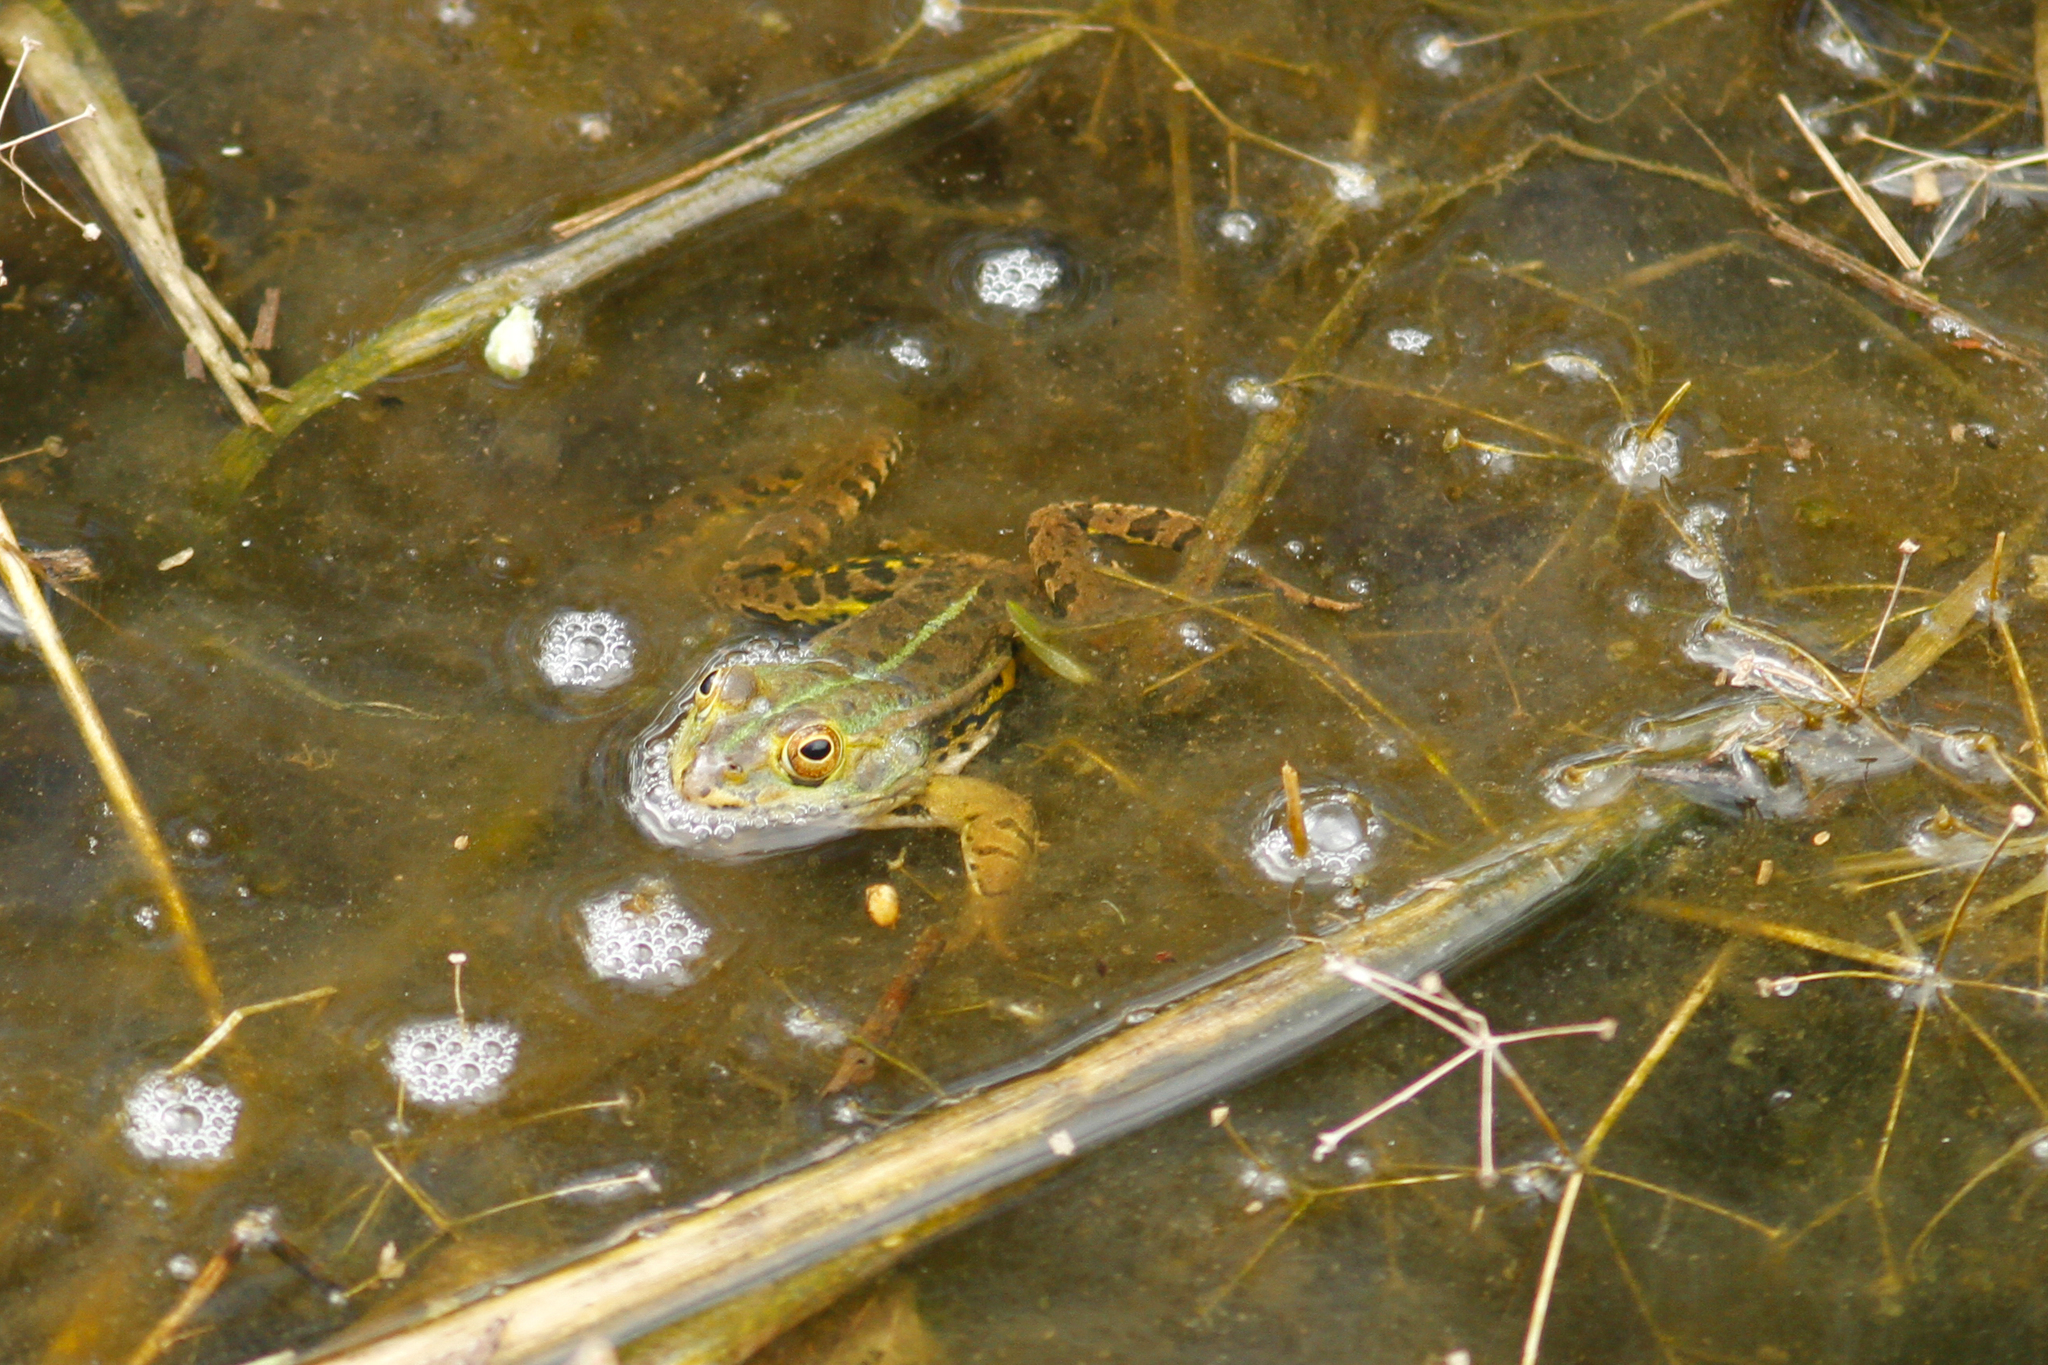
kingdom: Animalia
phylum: Chordata
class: Amphibia
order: Anura
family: Ranidae
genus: Pelophylax
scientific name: Pelophylax bergeri
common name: Italian pool frog
